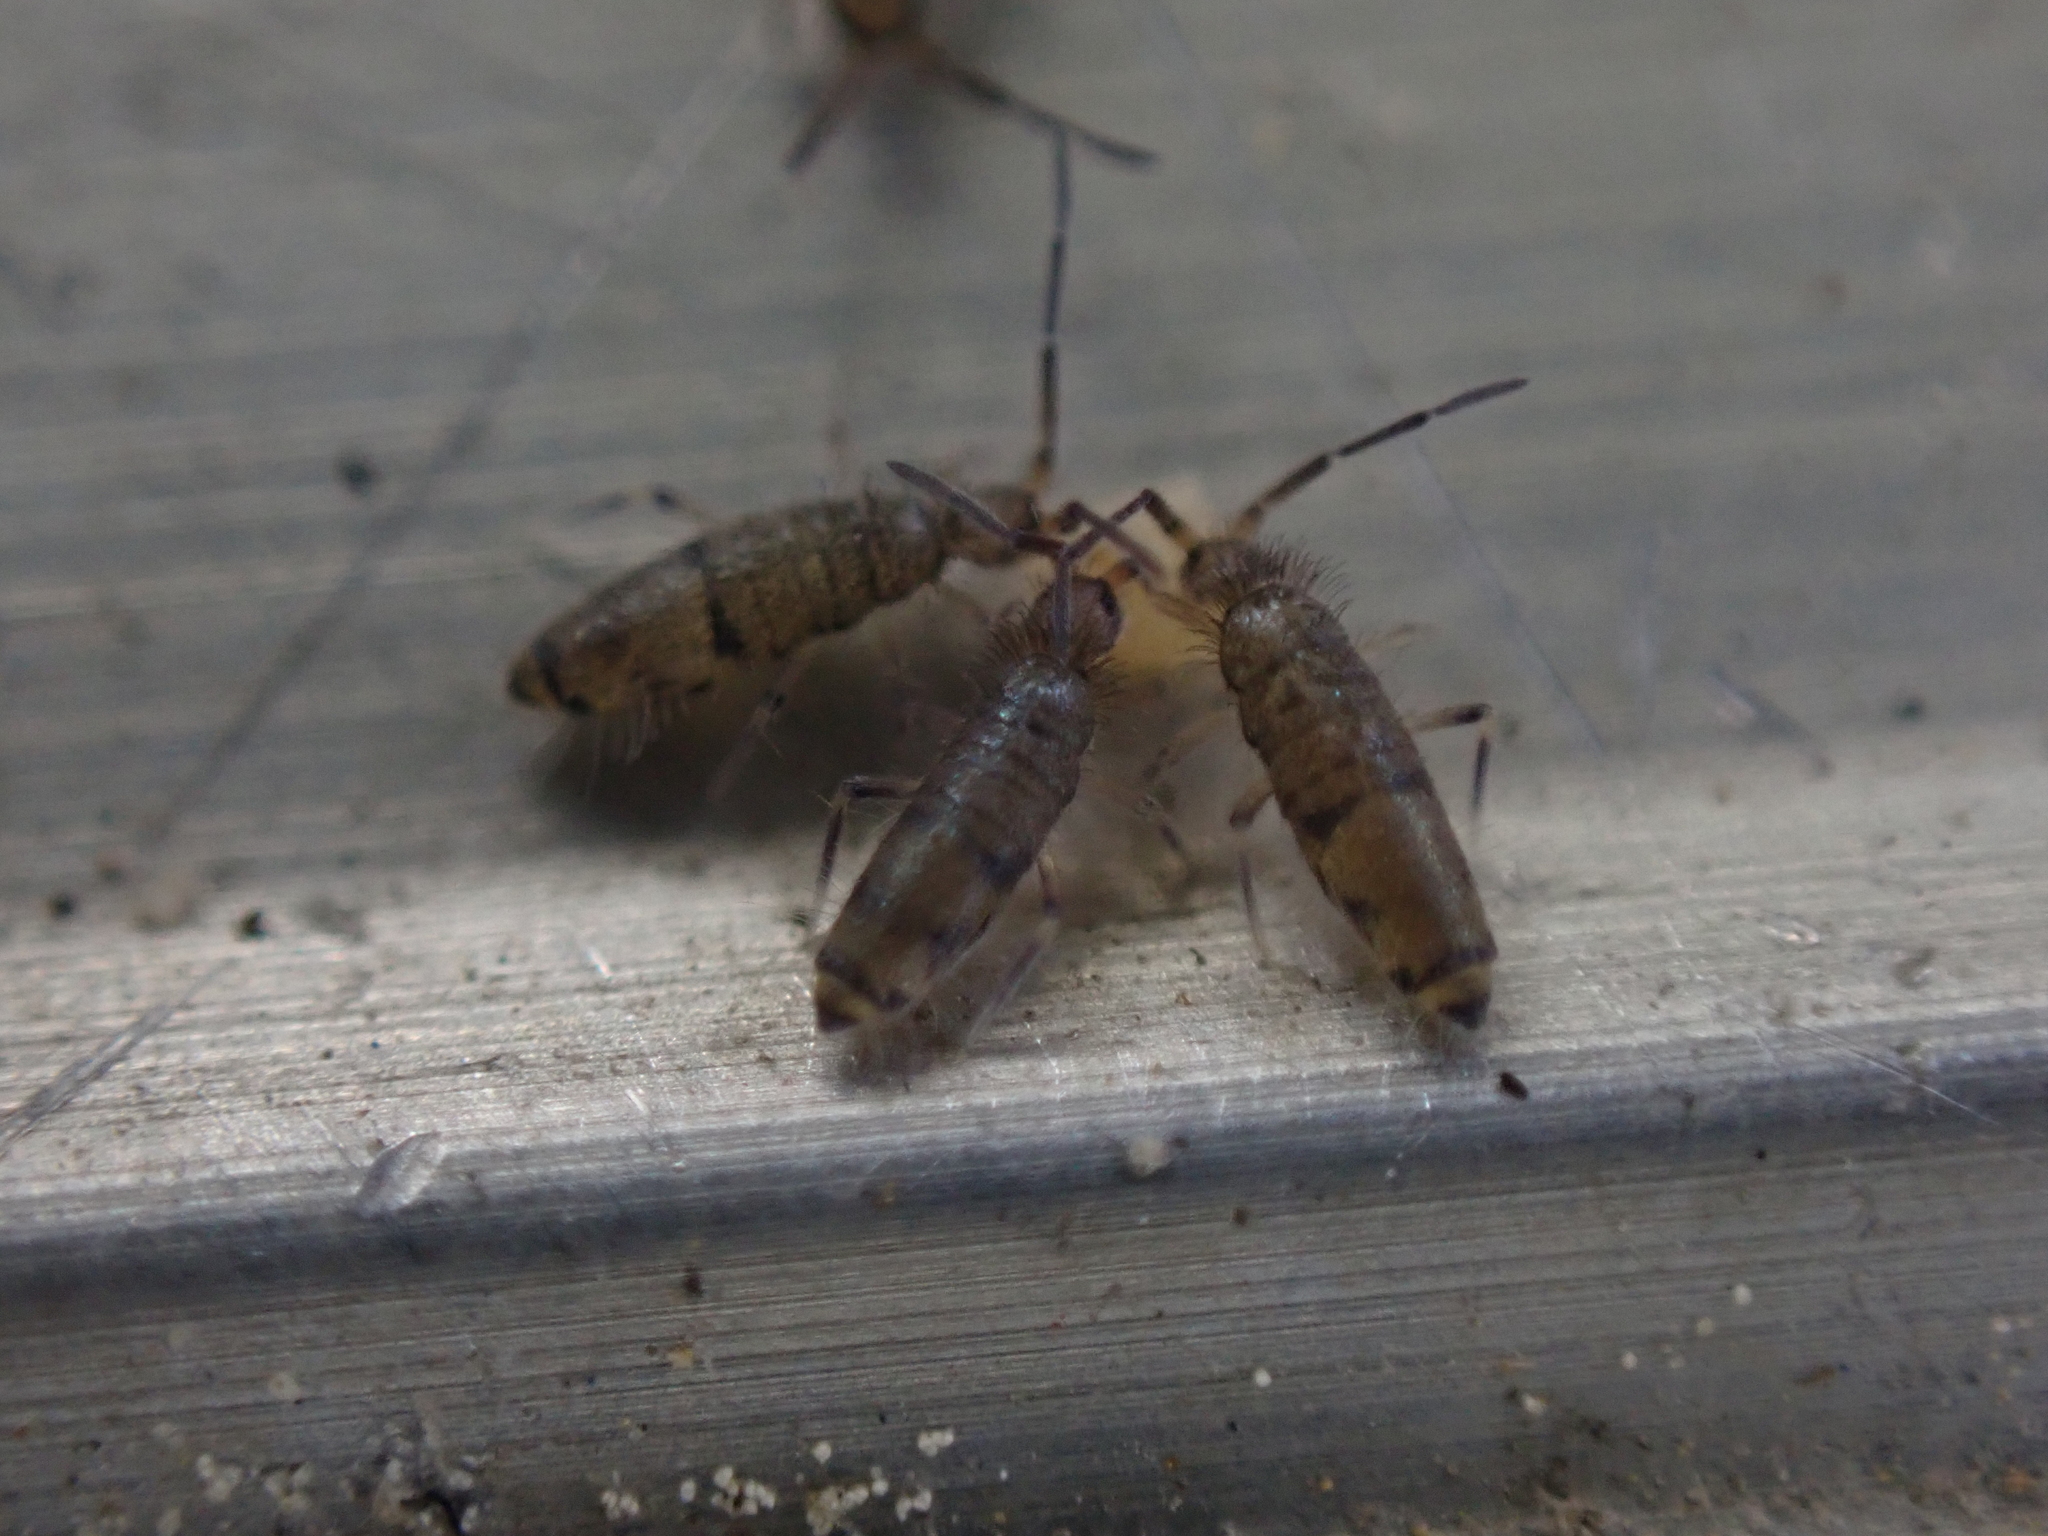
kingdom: Animalia
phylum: Arthropoda
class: Collembola
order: Entomobryomorpha
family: Entomobryidae
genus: Willowsia
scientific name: Willowsia nigromaculata
